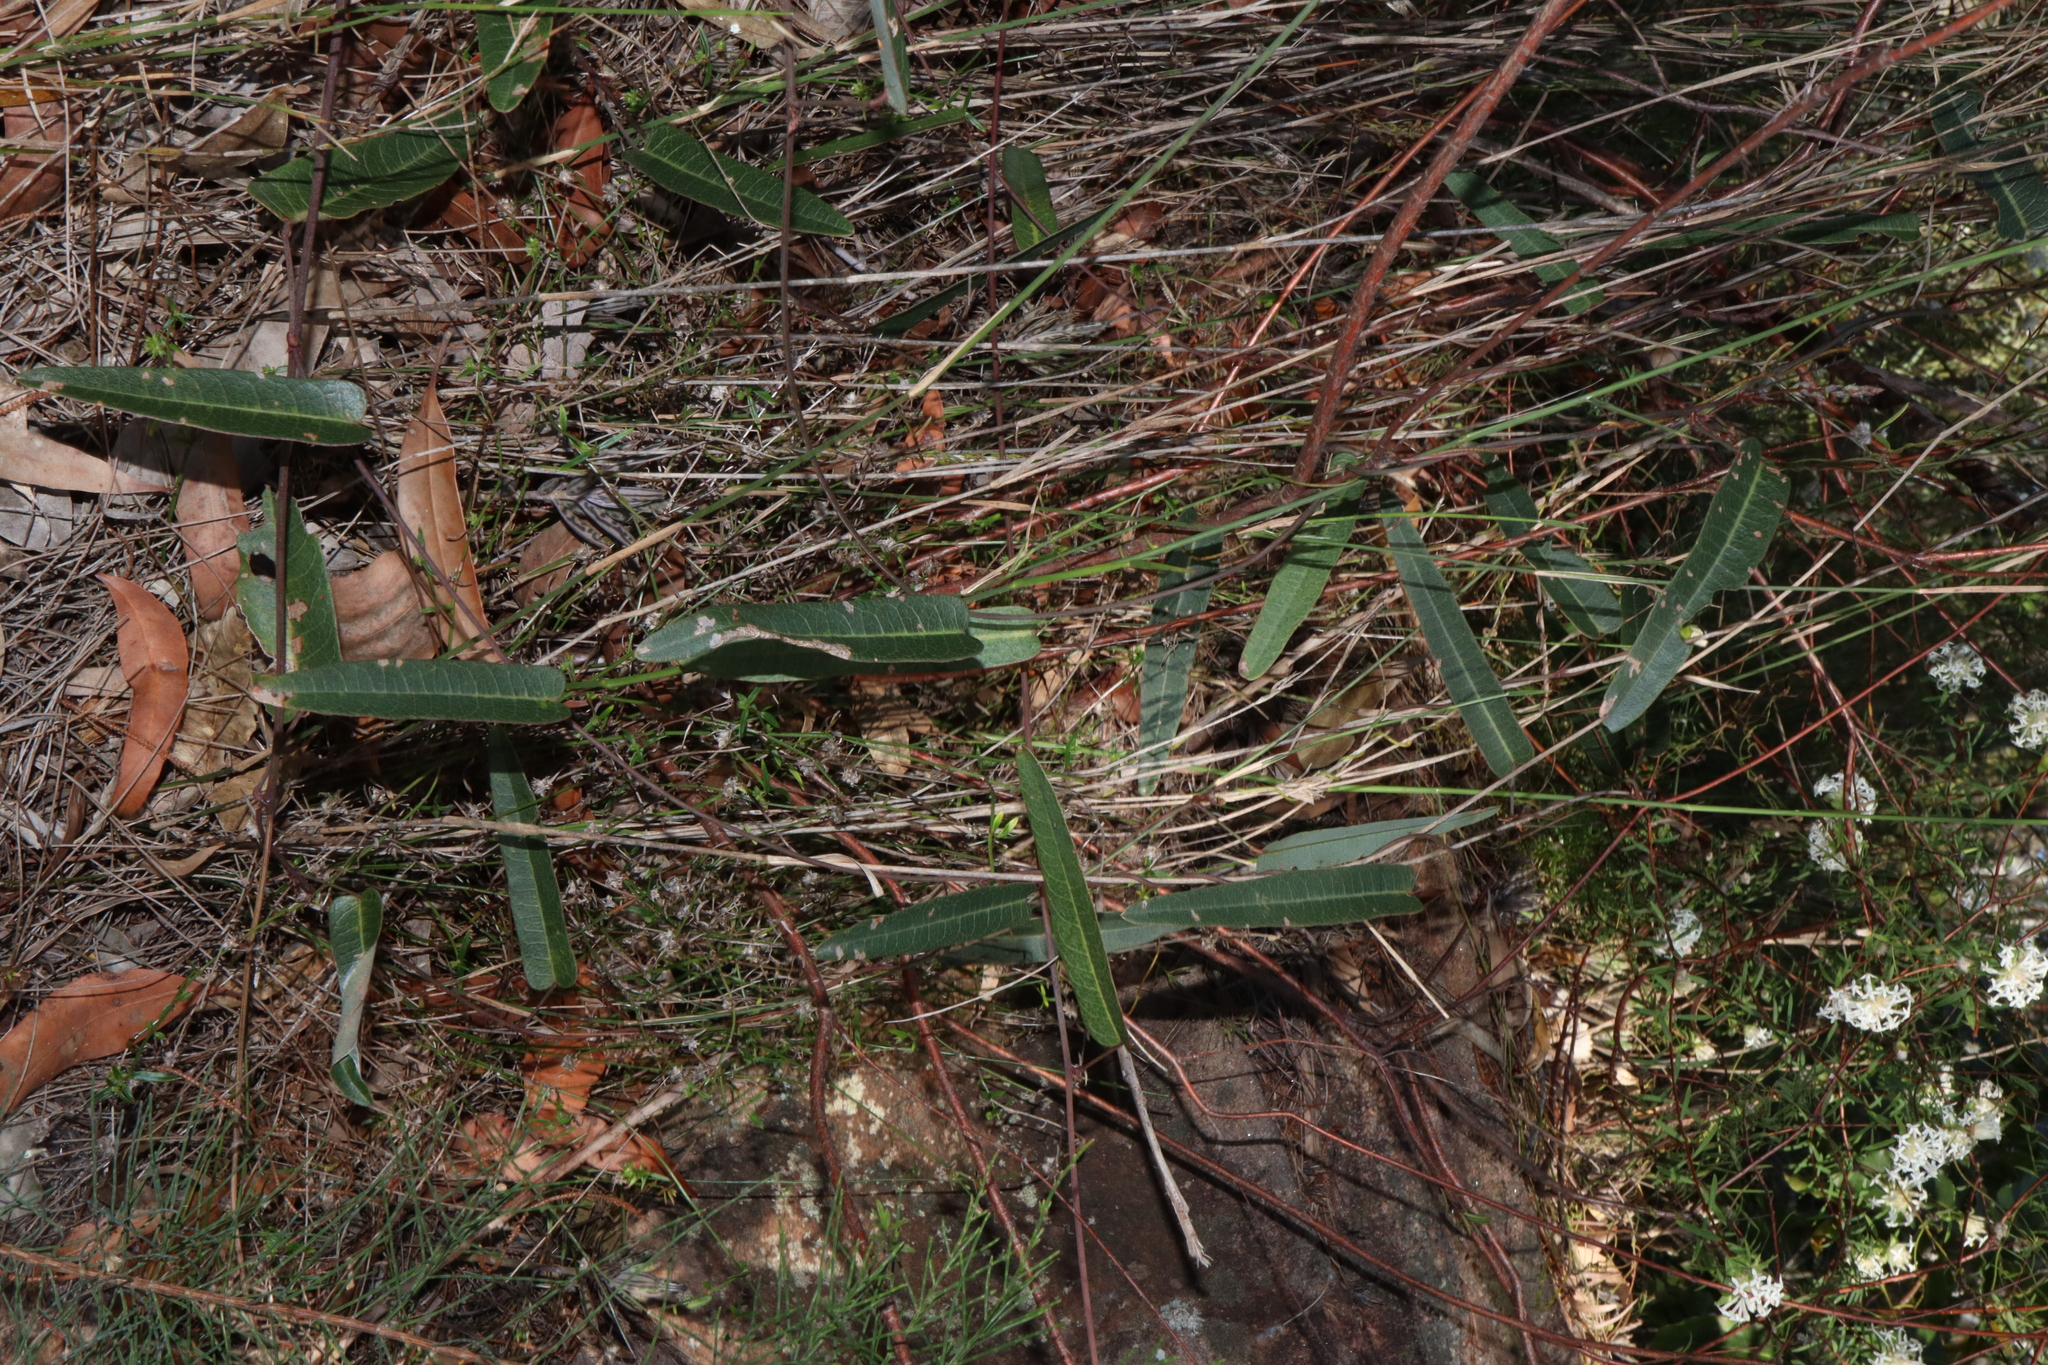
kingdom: Plantae
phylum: Tracheophyta
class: Magnoliopsida
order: Fabales
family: Fabaceae
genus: Hardenbergia
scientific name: Hardenbergia violacea
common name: Coral-pea
